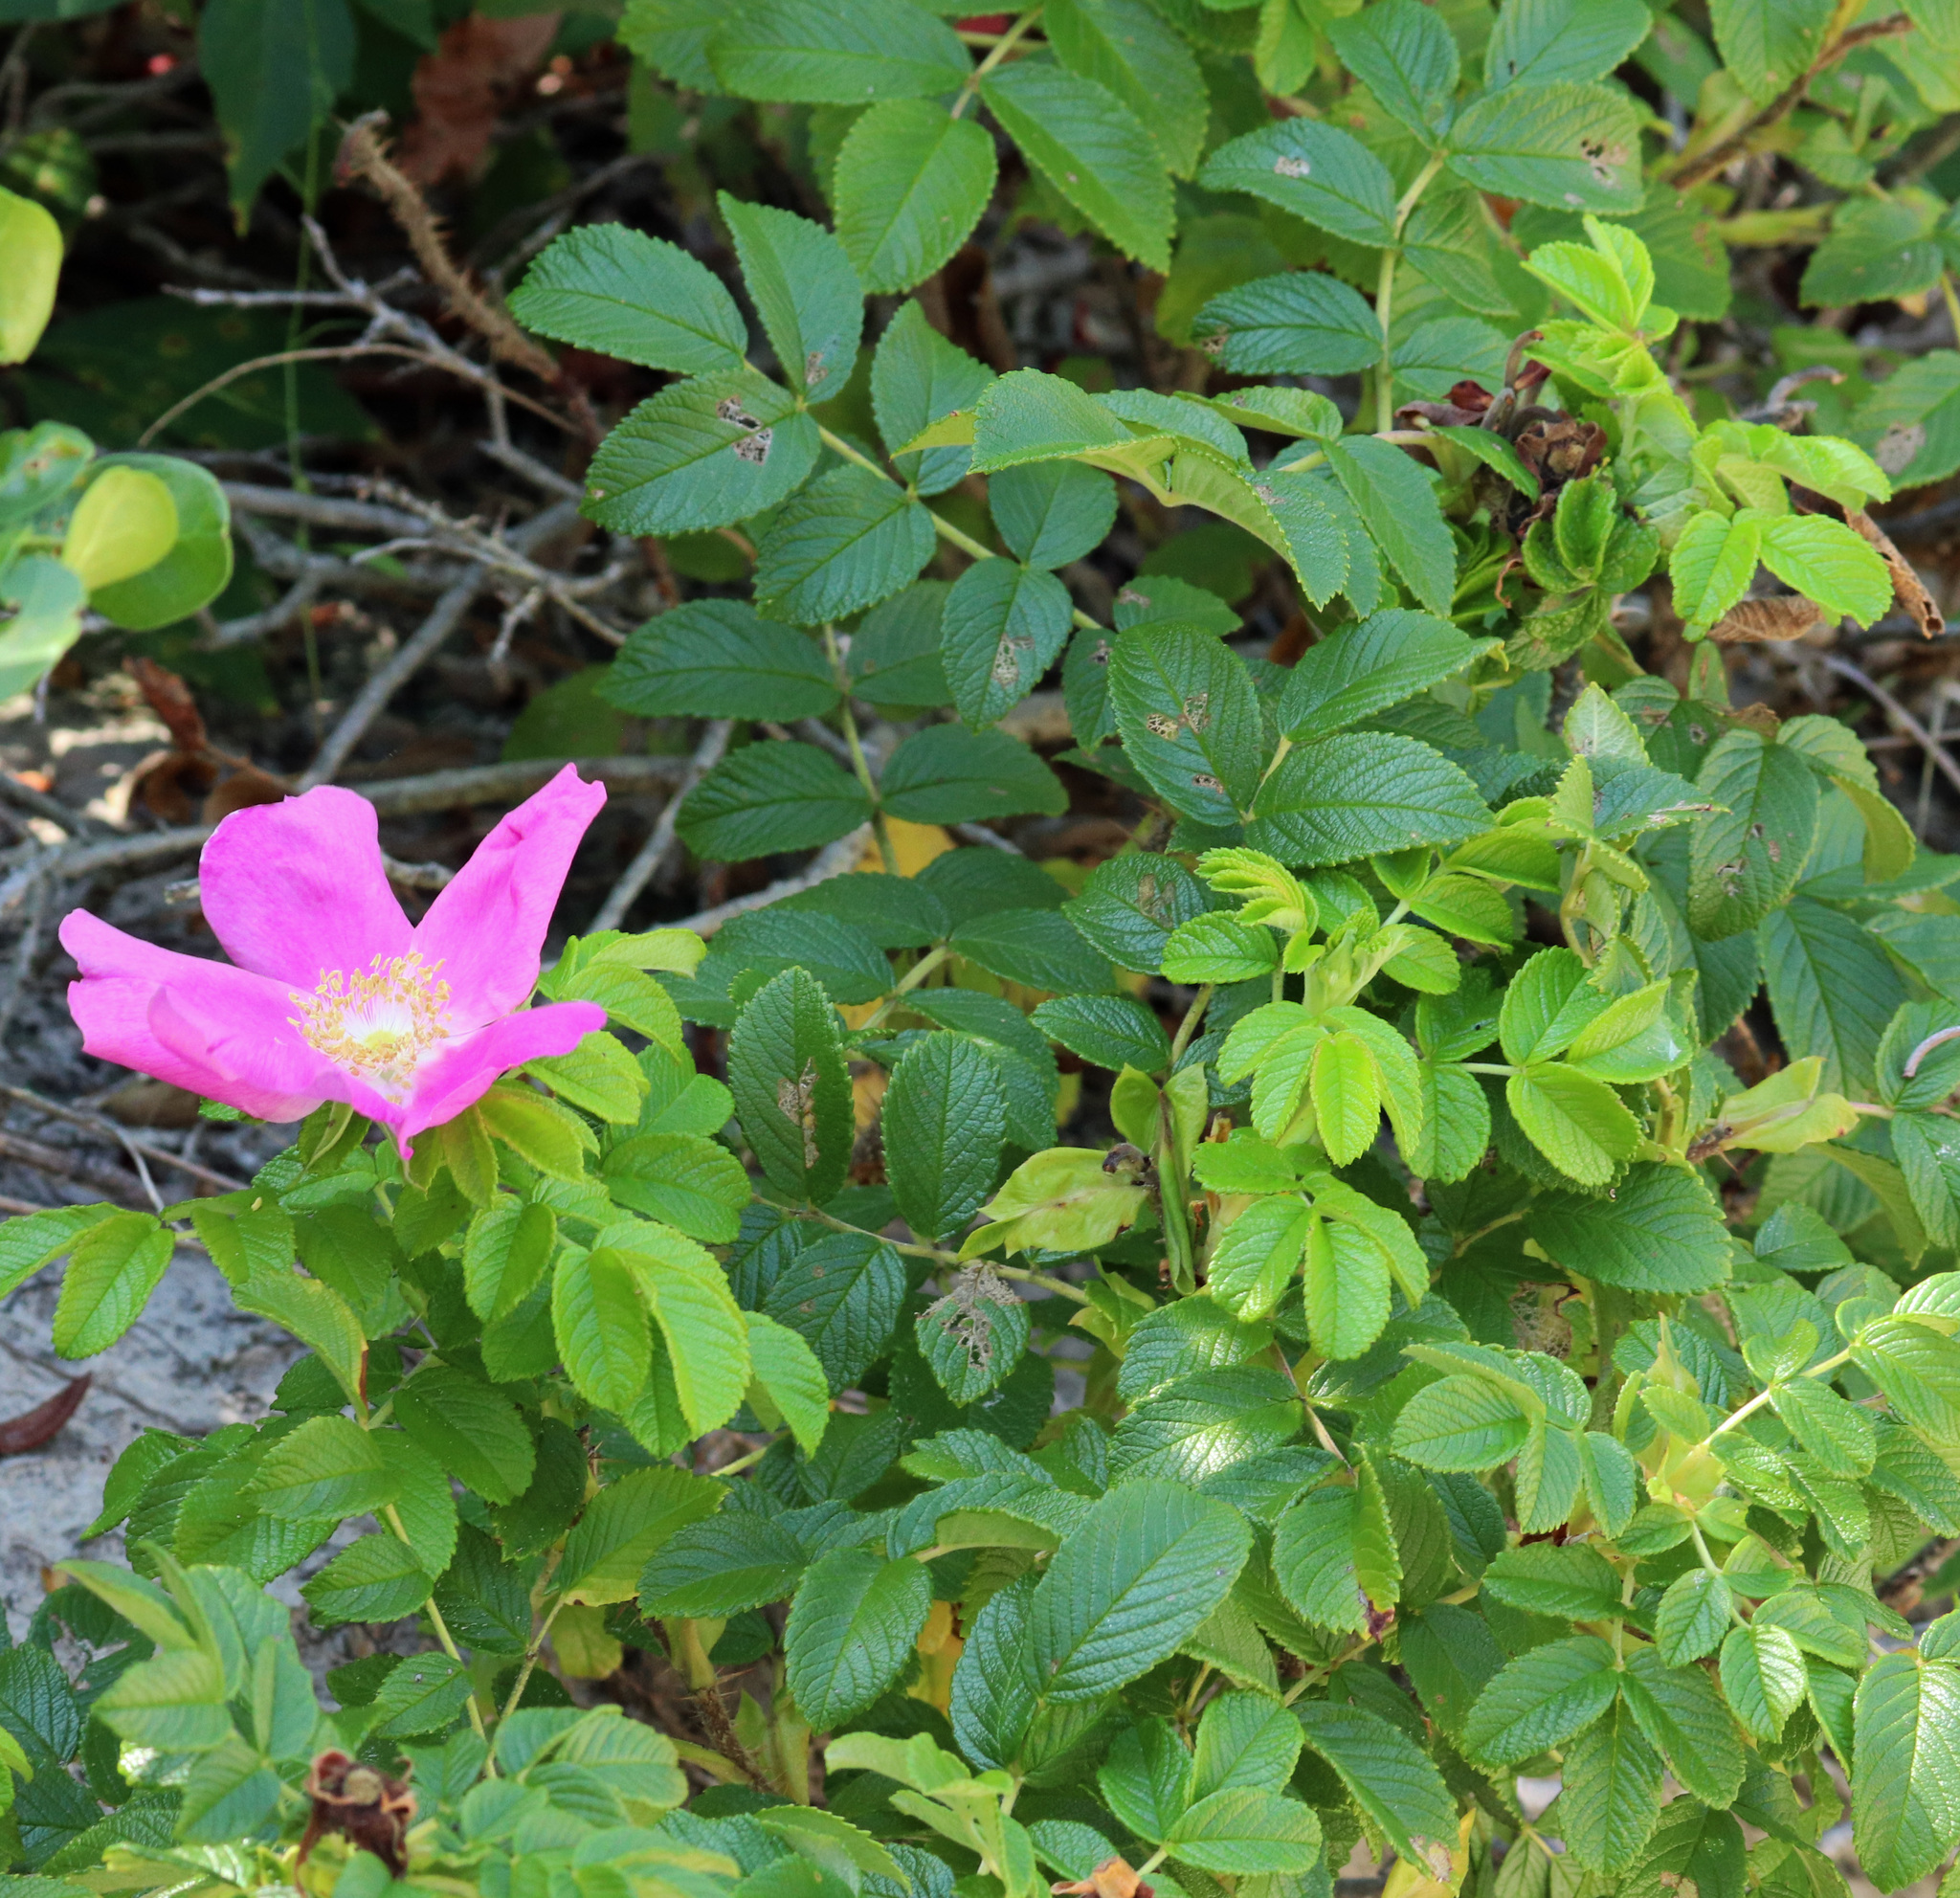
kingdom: Plantae
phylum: Tracheophyta
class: Magnoliopsida
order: Rosales
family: Rosaceae
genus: Rosa
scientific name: Rosa rugosa
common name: Japanese rose
